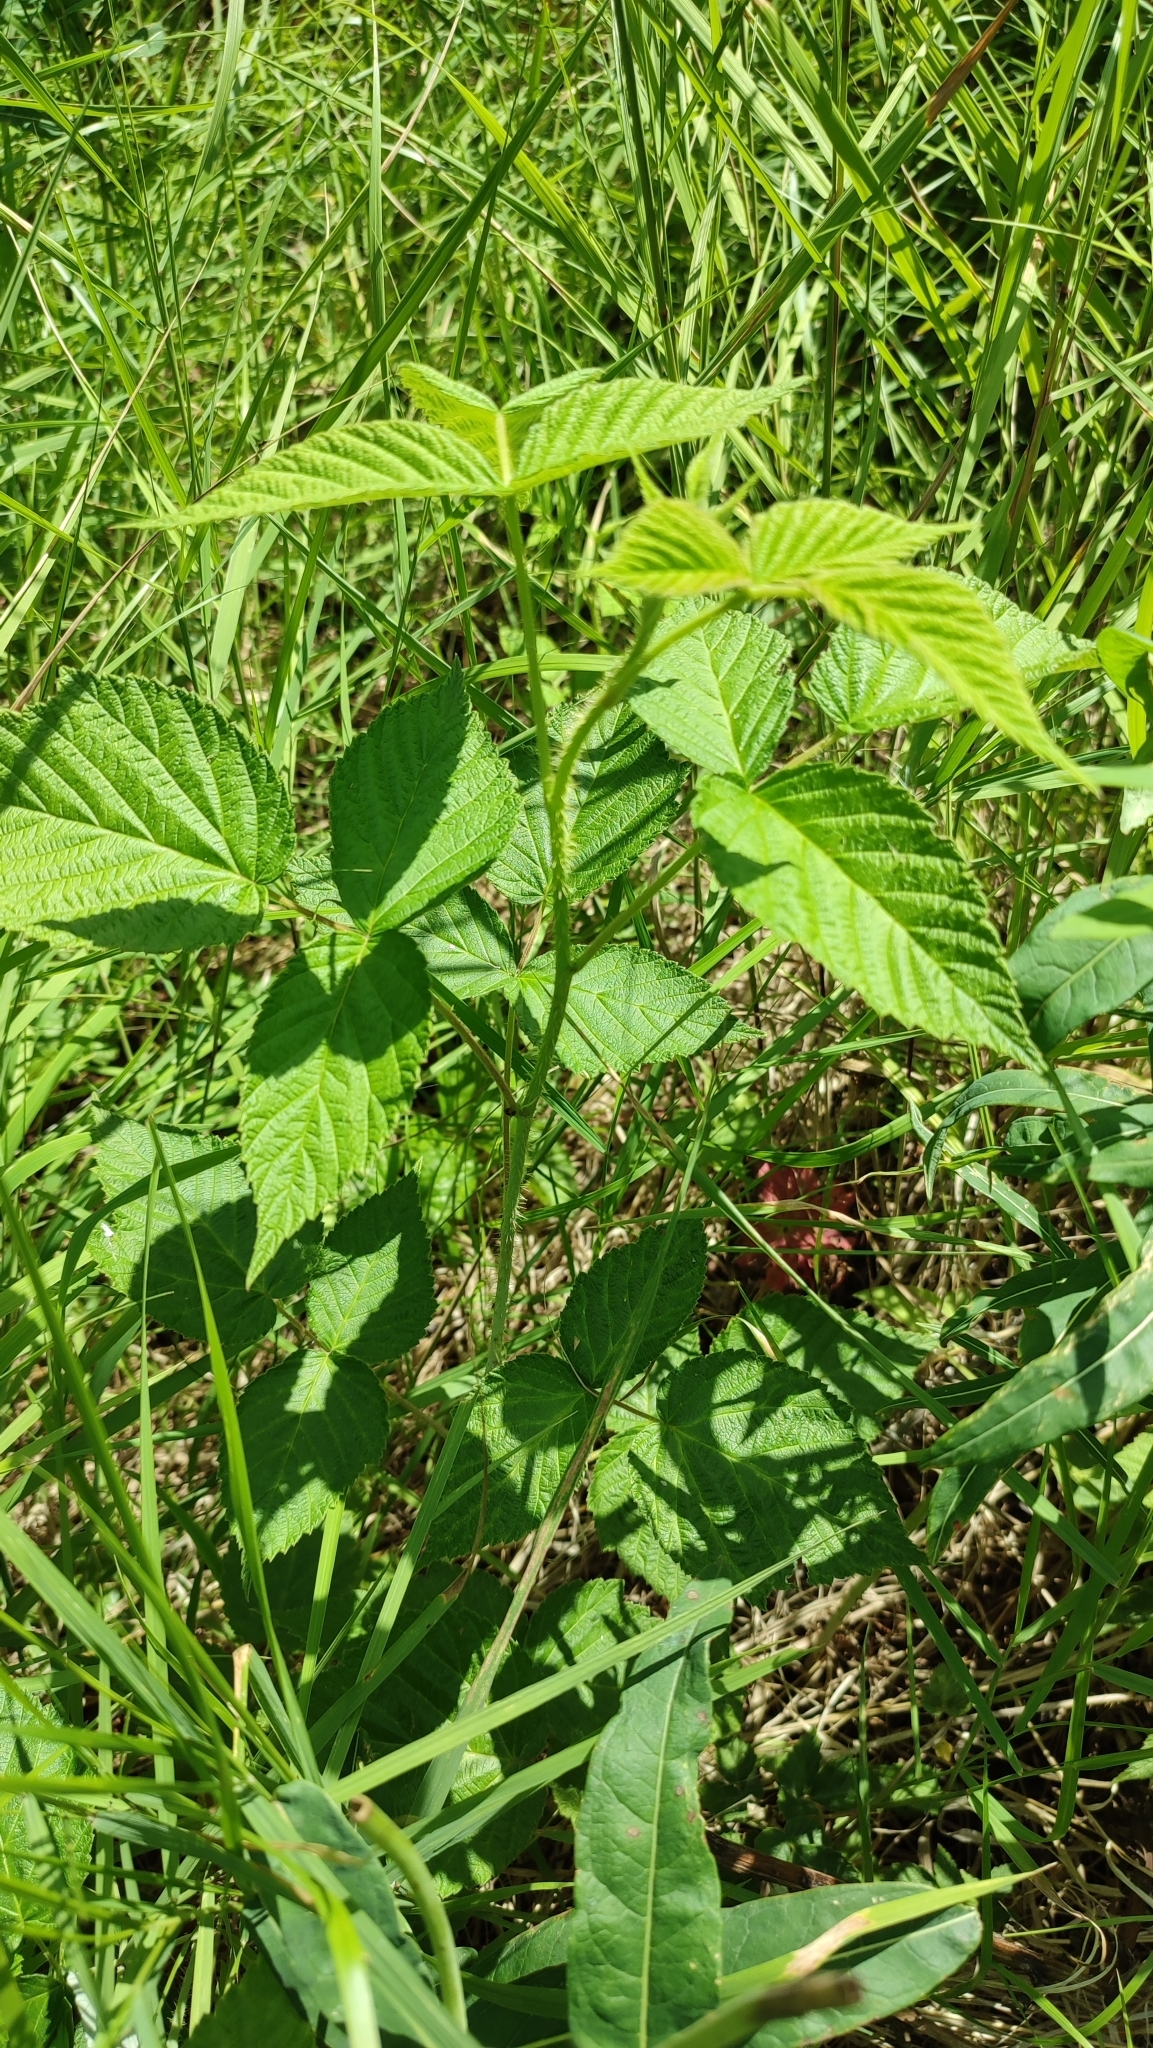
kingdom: Plantae
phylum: Tracheophyta
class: Magnoliopsida
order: Rosales
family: Rosaceae
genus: Rubus
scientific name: Rubus idaeus
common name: Raspberry
